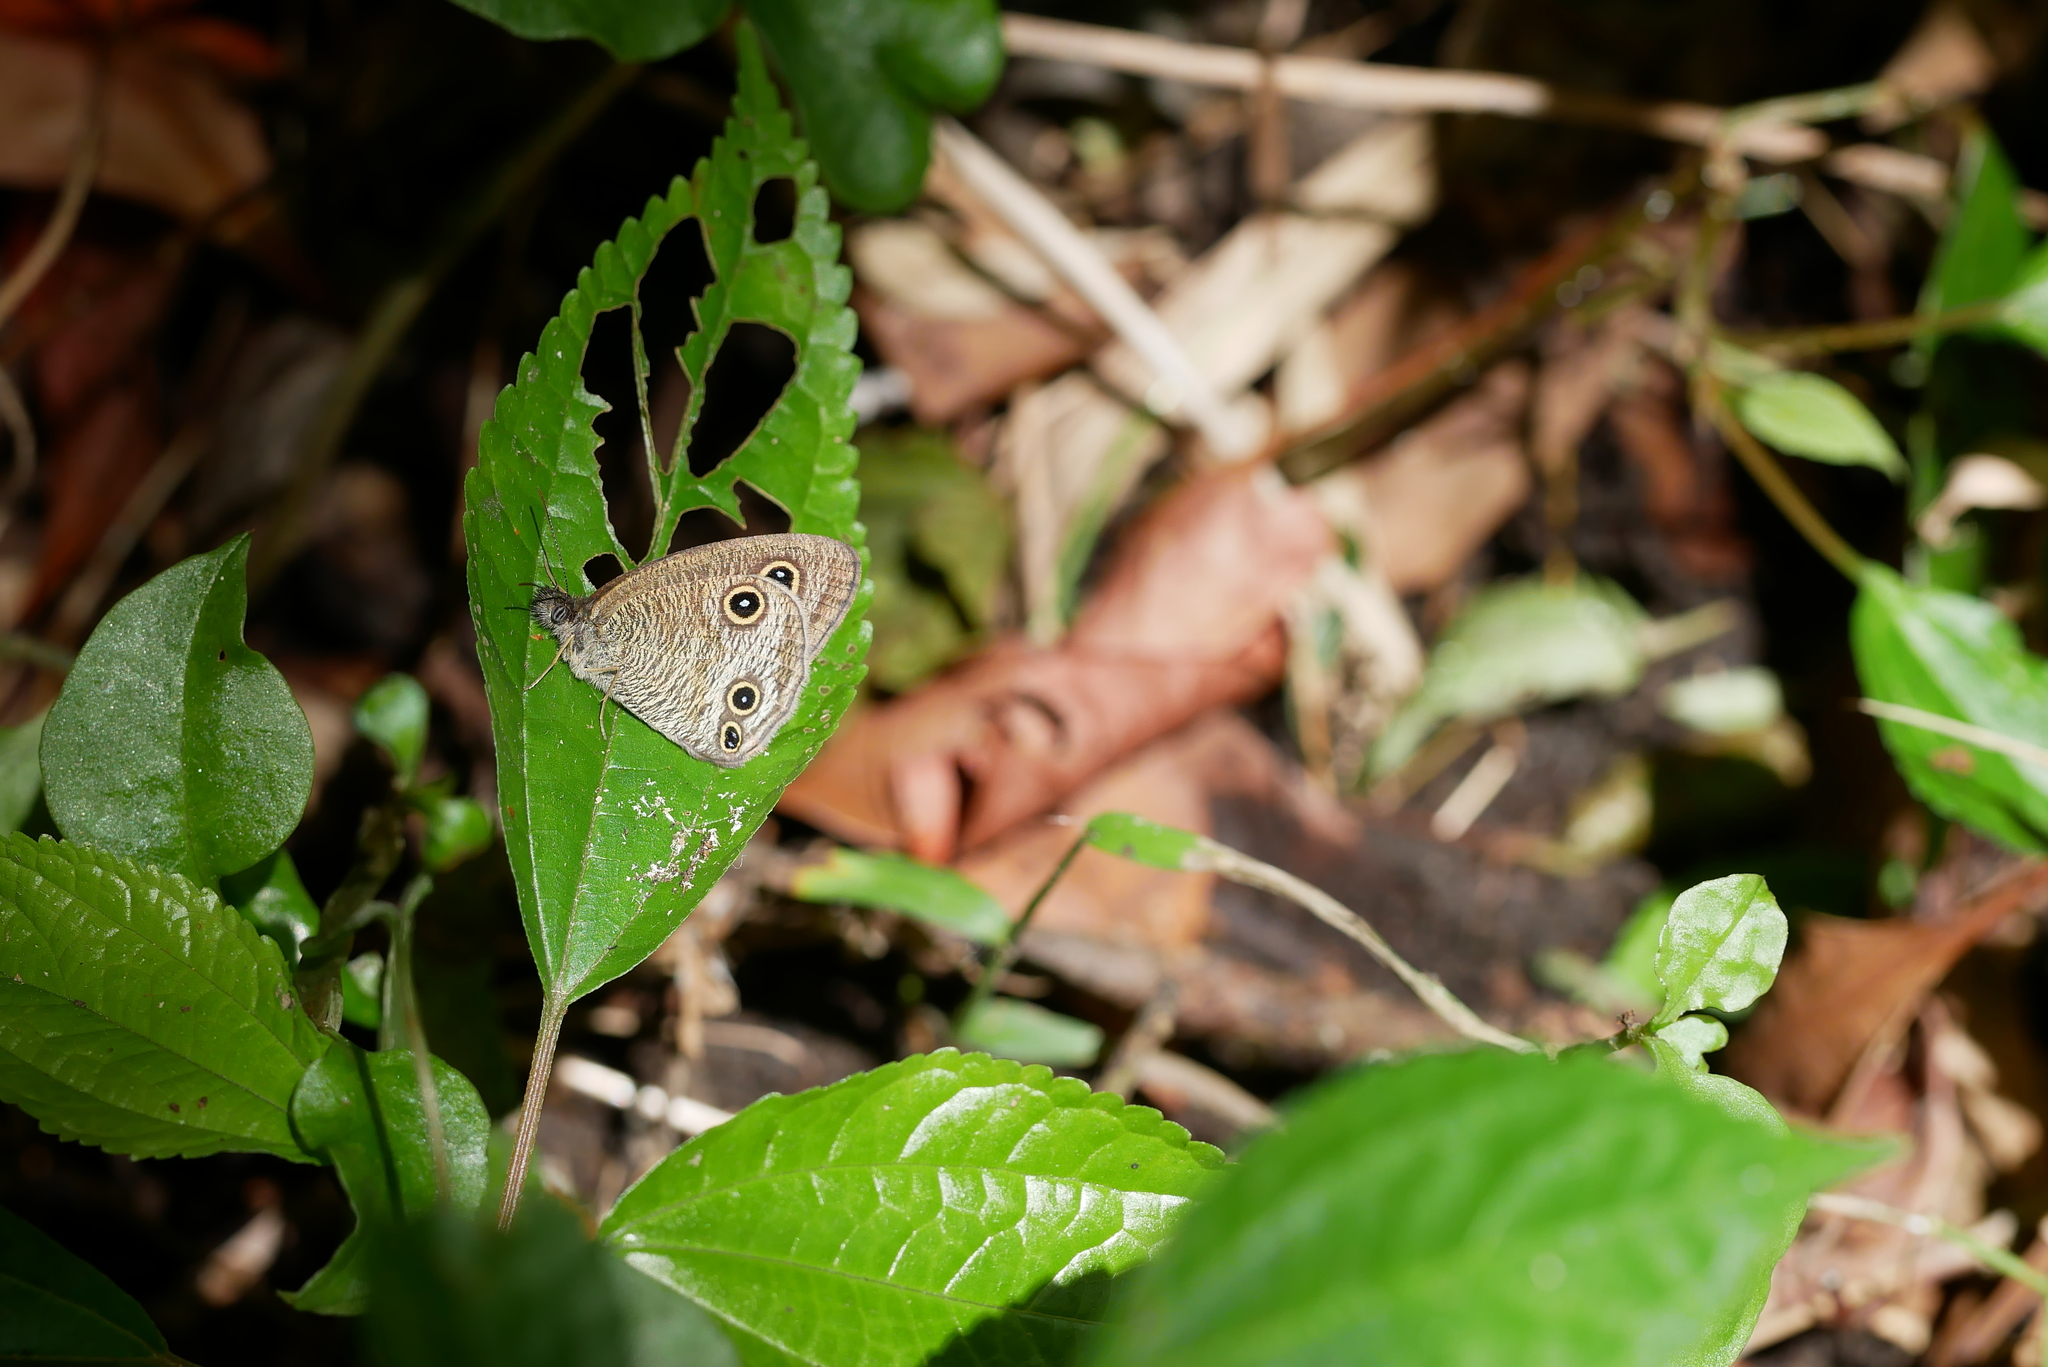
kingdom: Animalia
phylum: Arthropoda
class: Insecta
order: Lepidoptera
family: Nymphalidae
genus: Ypthima
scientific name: Ypthima multistriata
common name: Striated ringlet
